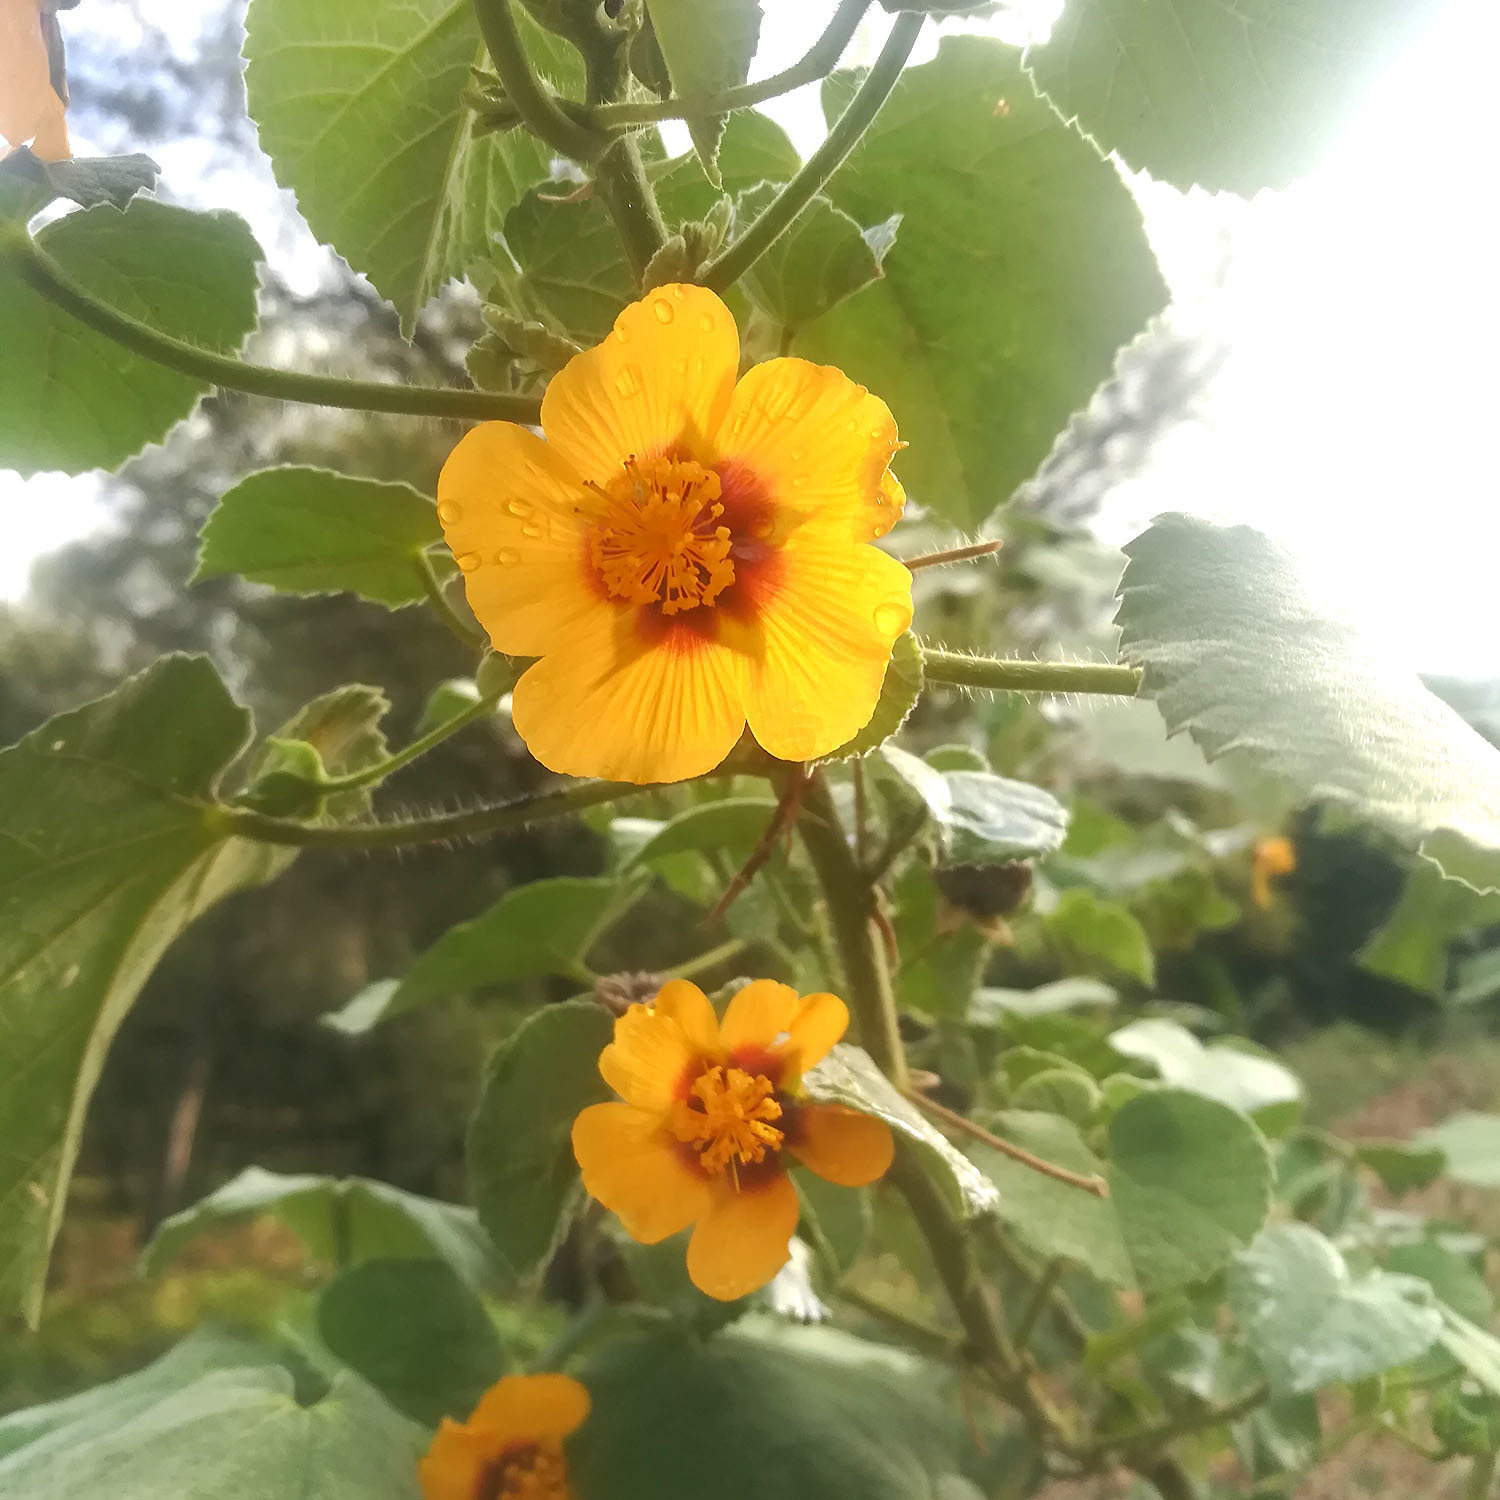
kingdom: Plantae
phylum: Tracheophyta
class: Magnoliopsida
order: Malvales
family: Malvaceae
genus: Abutilon
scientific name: Abutilon hirtum
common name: Florida keys indian mallow
